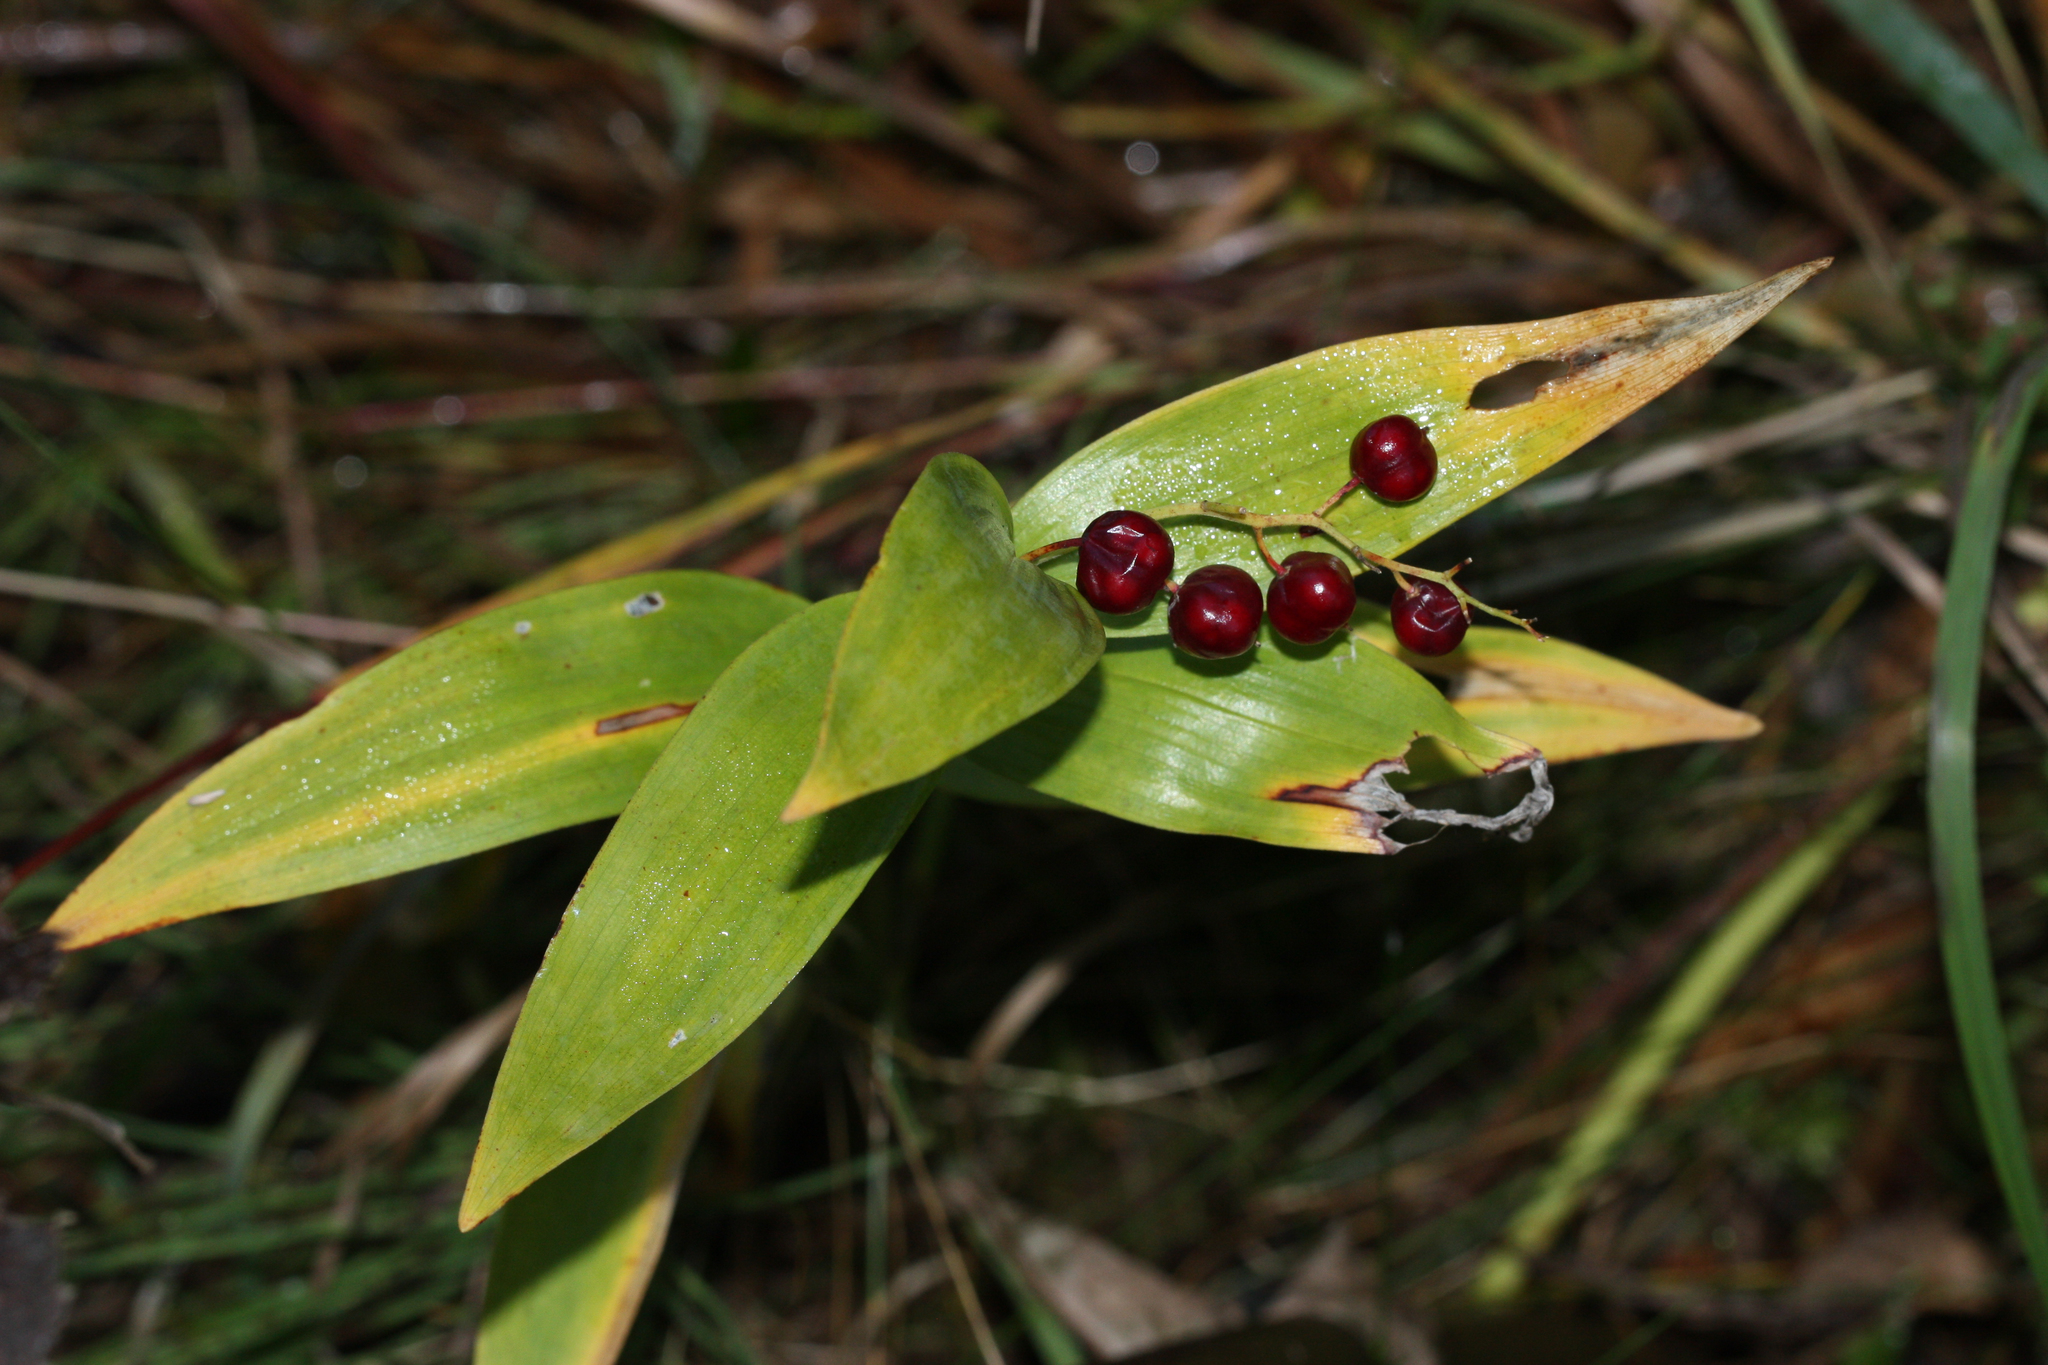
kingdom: Plantae
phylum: Tracheophyta
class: Liliopsida
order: Asparagales
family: Asparagaceae
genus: Maianthemum
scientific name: Maianthemum stellatum
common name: Little false solomon's seal
